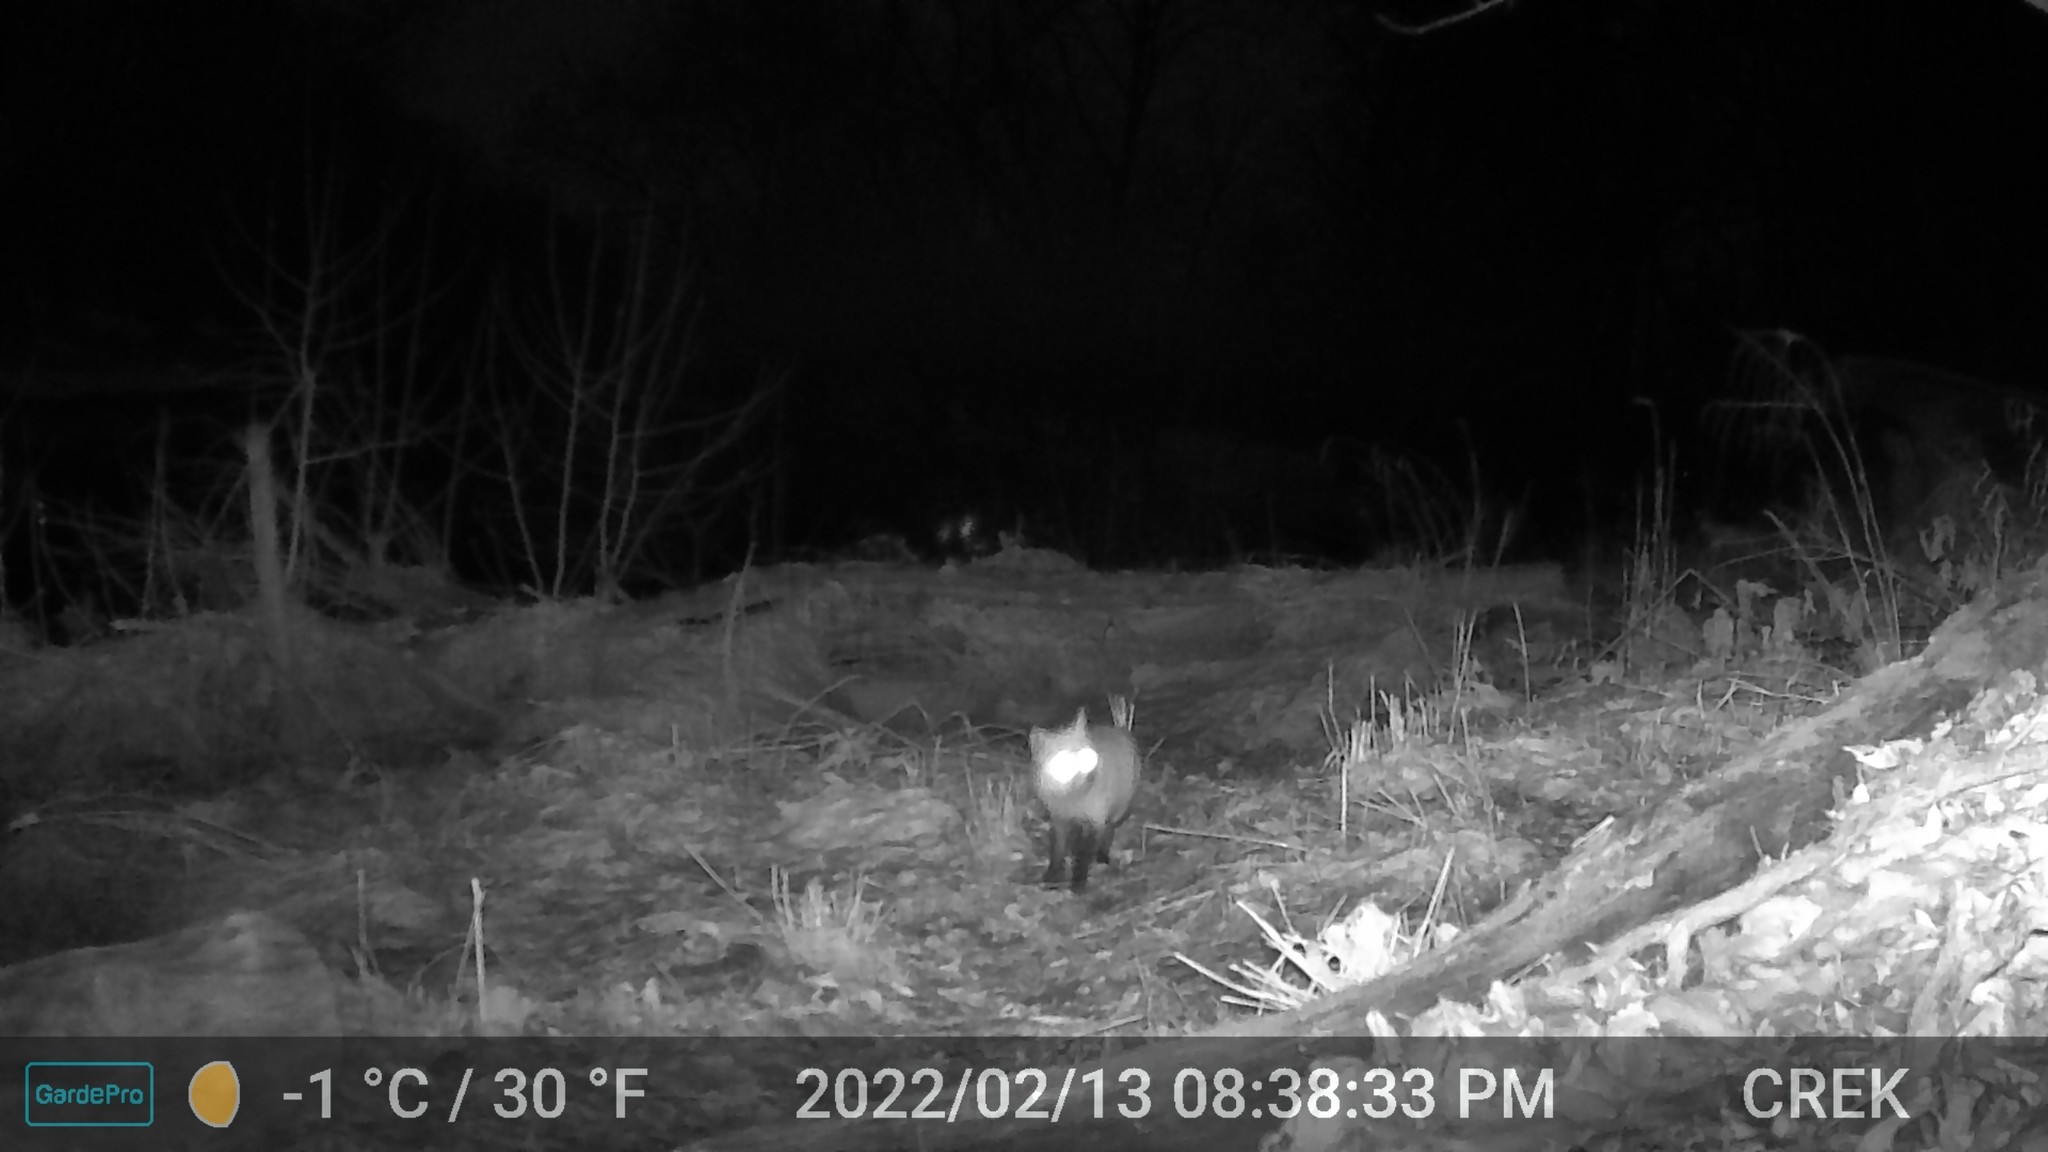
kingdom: Animalia
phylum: Chordata
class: Mammalia
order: Carnivora
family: Canidae
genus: Vulpes
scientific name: Vulpes vulpes
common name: Red fox
